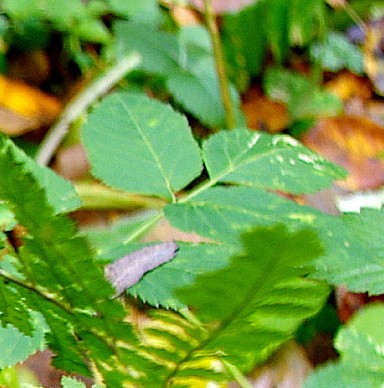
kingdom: Plantae
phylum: Tracheophyta
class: Magnoliopsida
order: Apiales
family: Apiaceae
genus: Aegopodium
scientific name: Aegopodium podagraria
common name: Ground-elder
